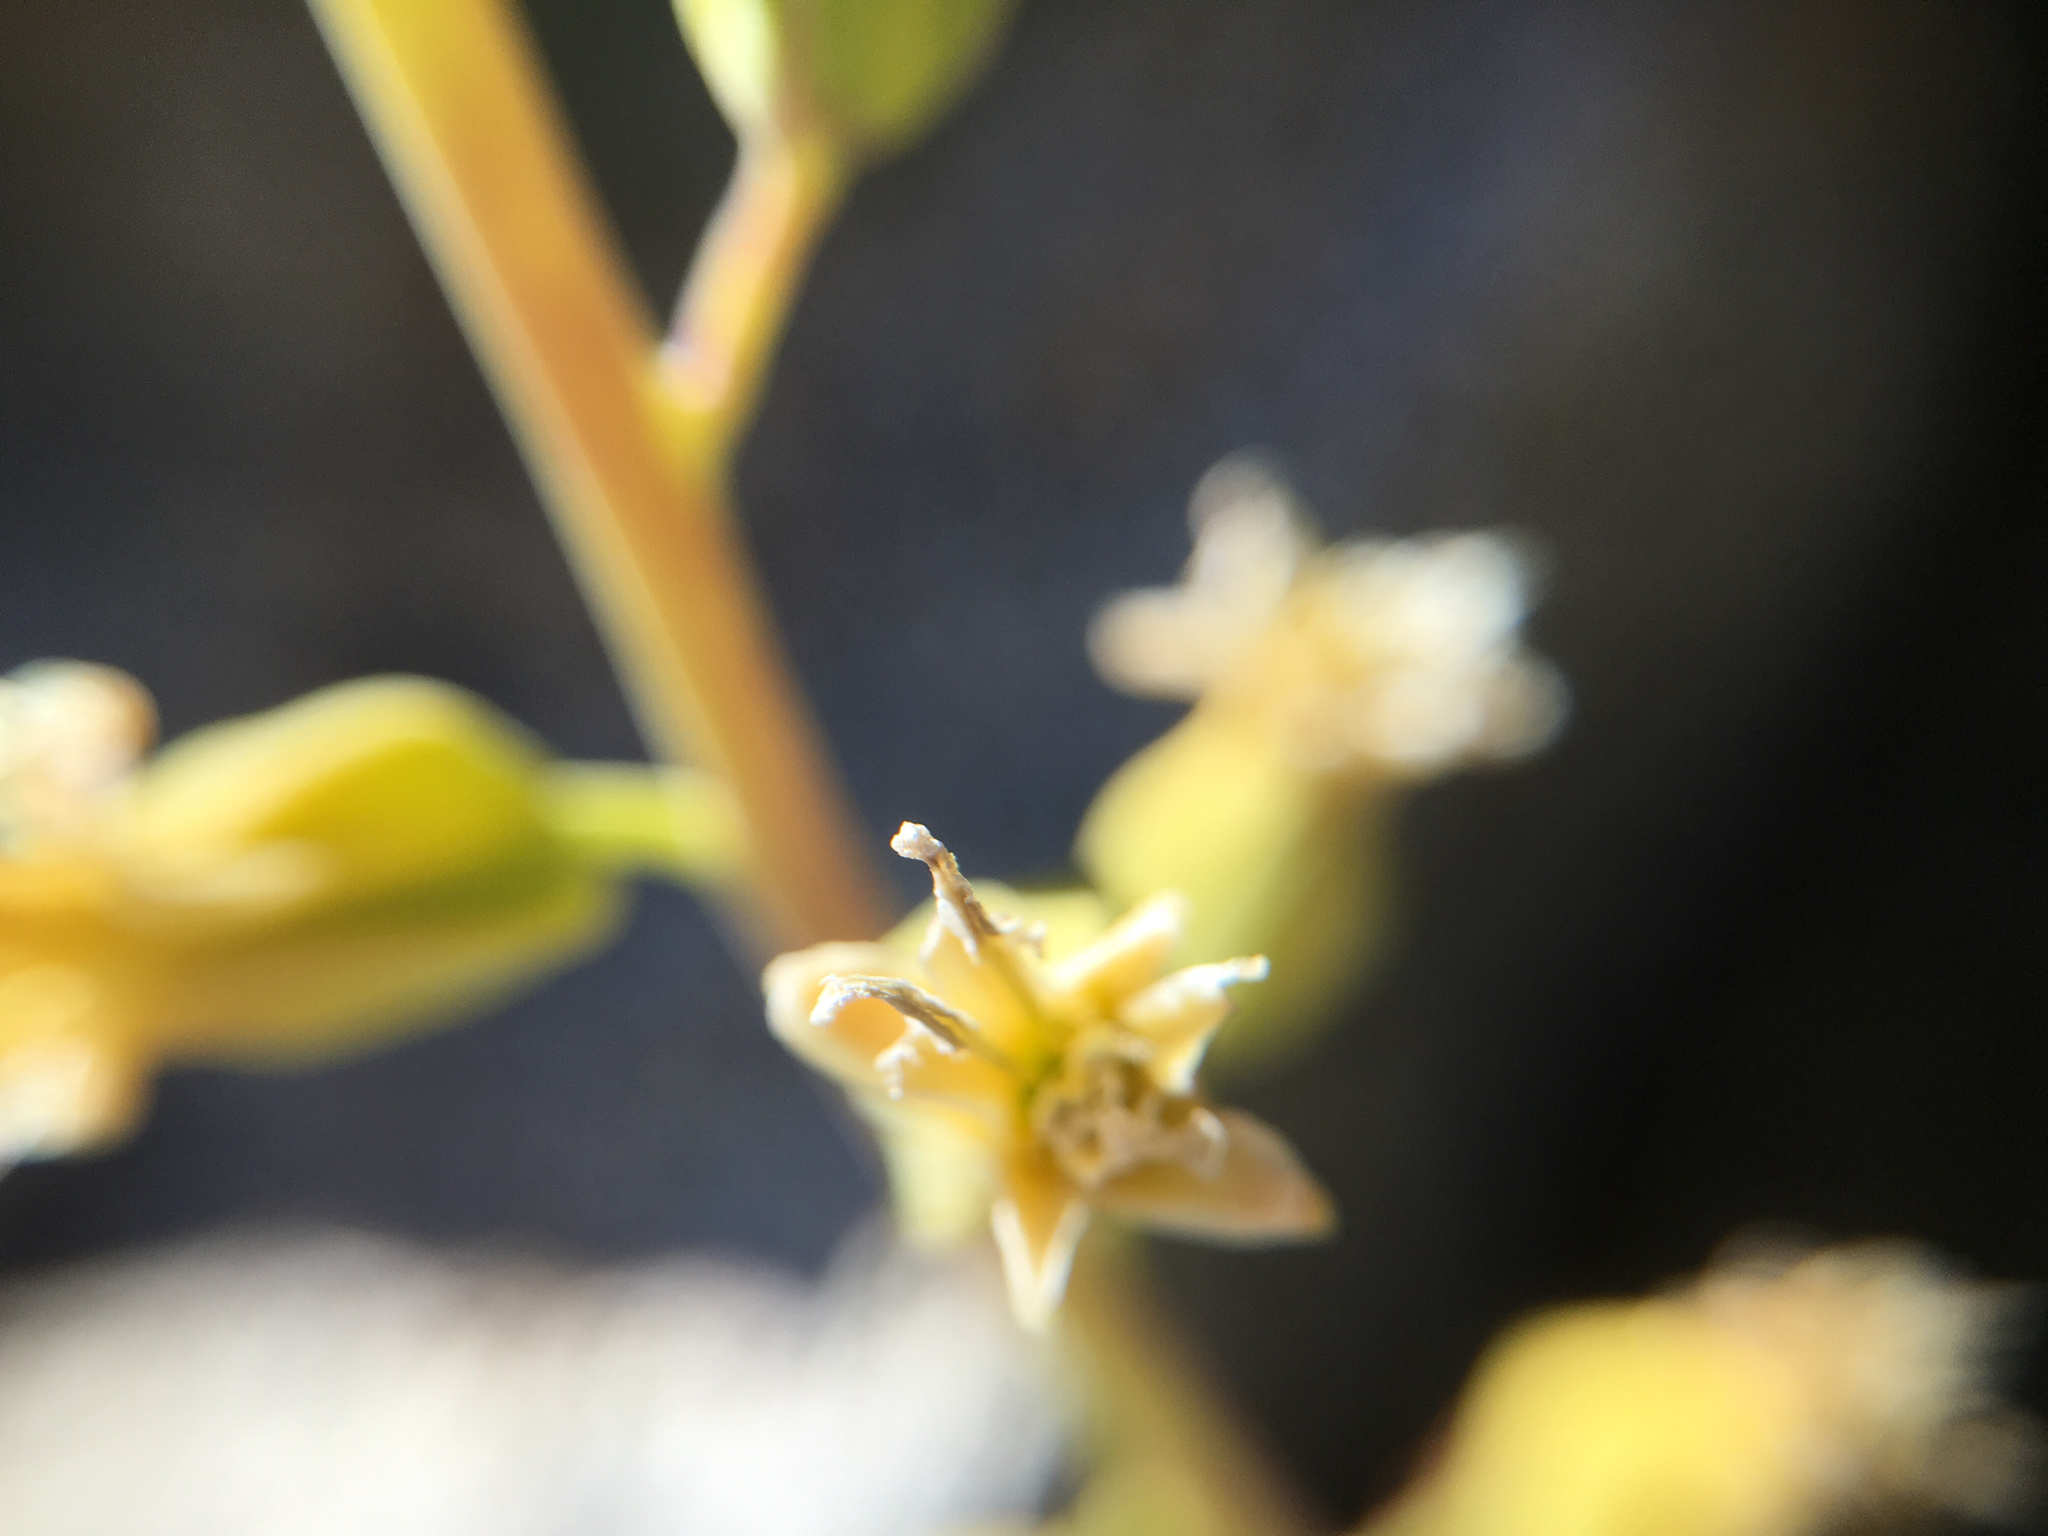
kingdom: Plantae
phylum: Tracheophyta
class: Magnoliopsida
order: Brassicales
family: Brassicaceae
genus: Streptanthus
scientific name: Streptanthus tortuosus
